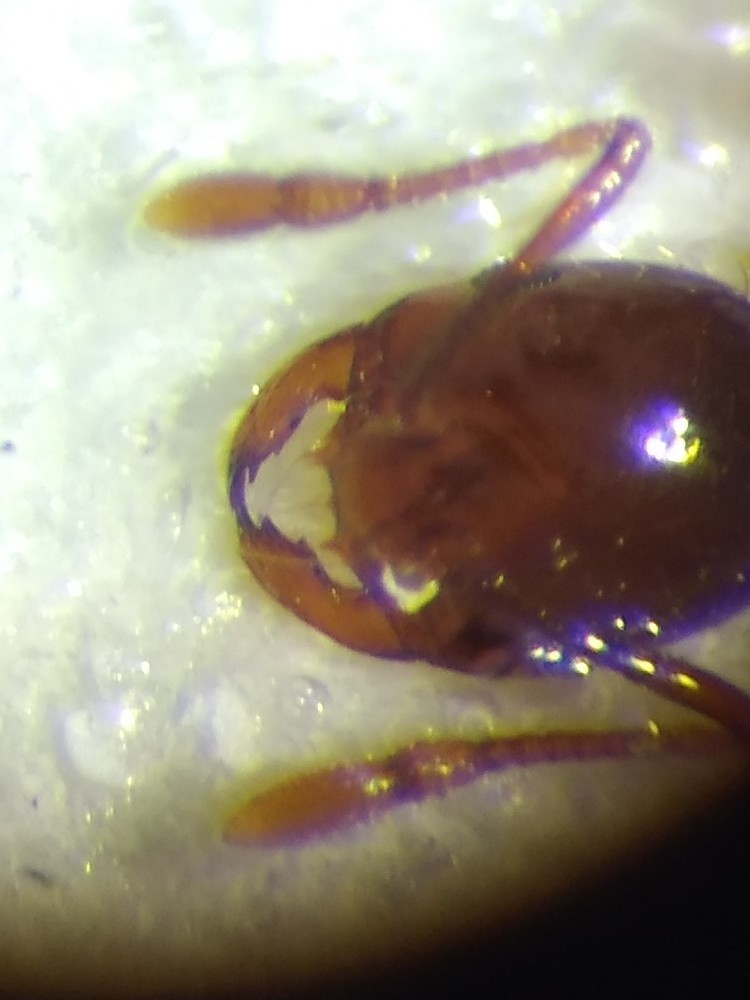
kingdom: Animalia
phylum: Arthropoda
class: Insecta
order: Hymenoptera
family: Formicidae
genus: Solenopsis
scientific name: Solenopsis invicta
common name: Red imported fire ant
